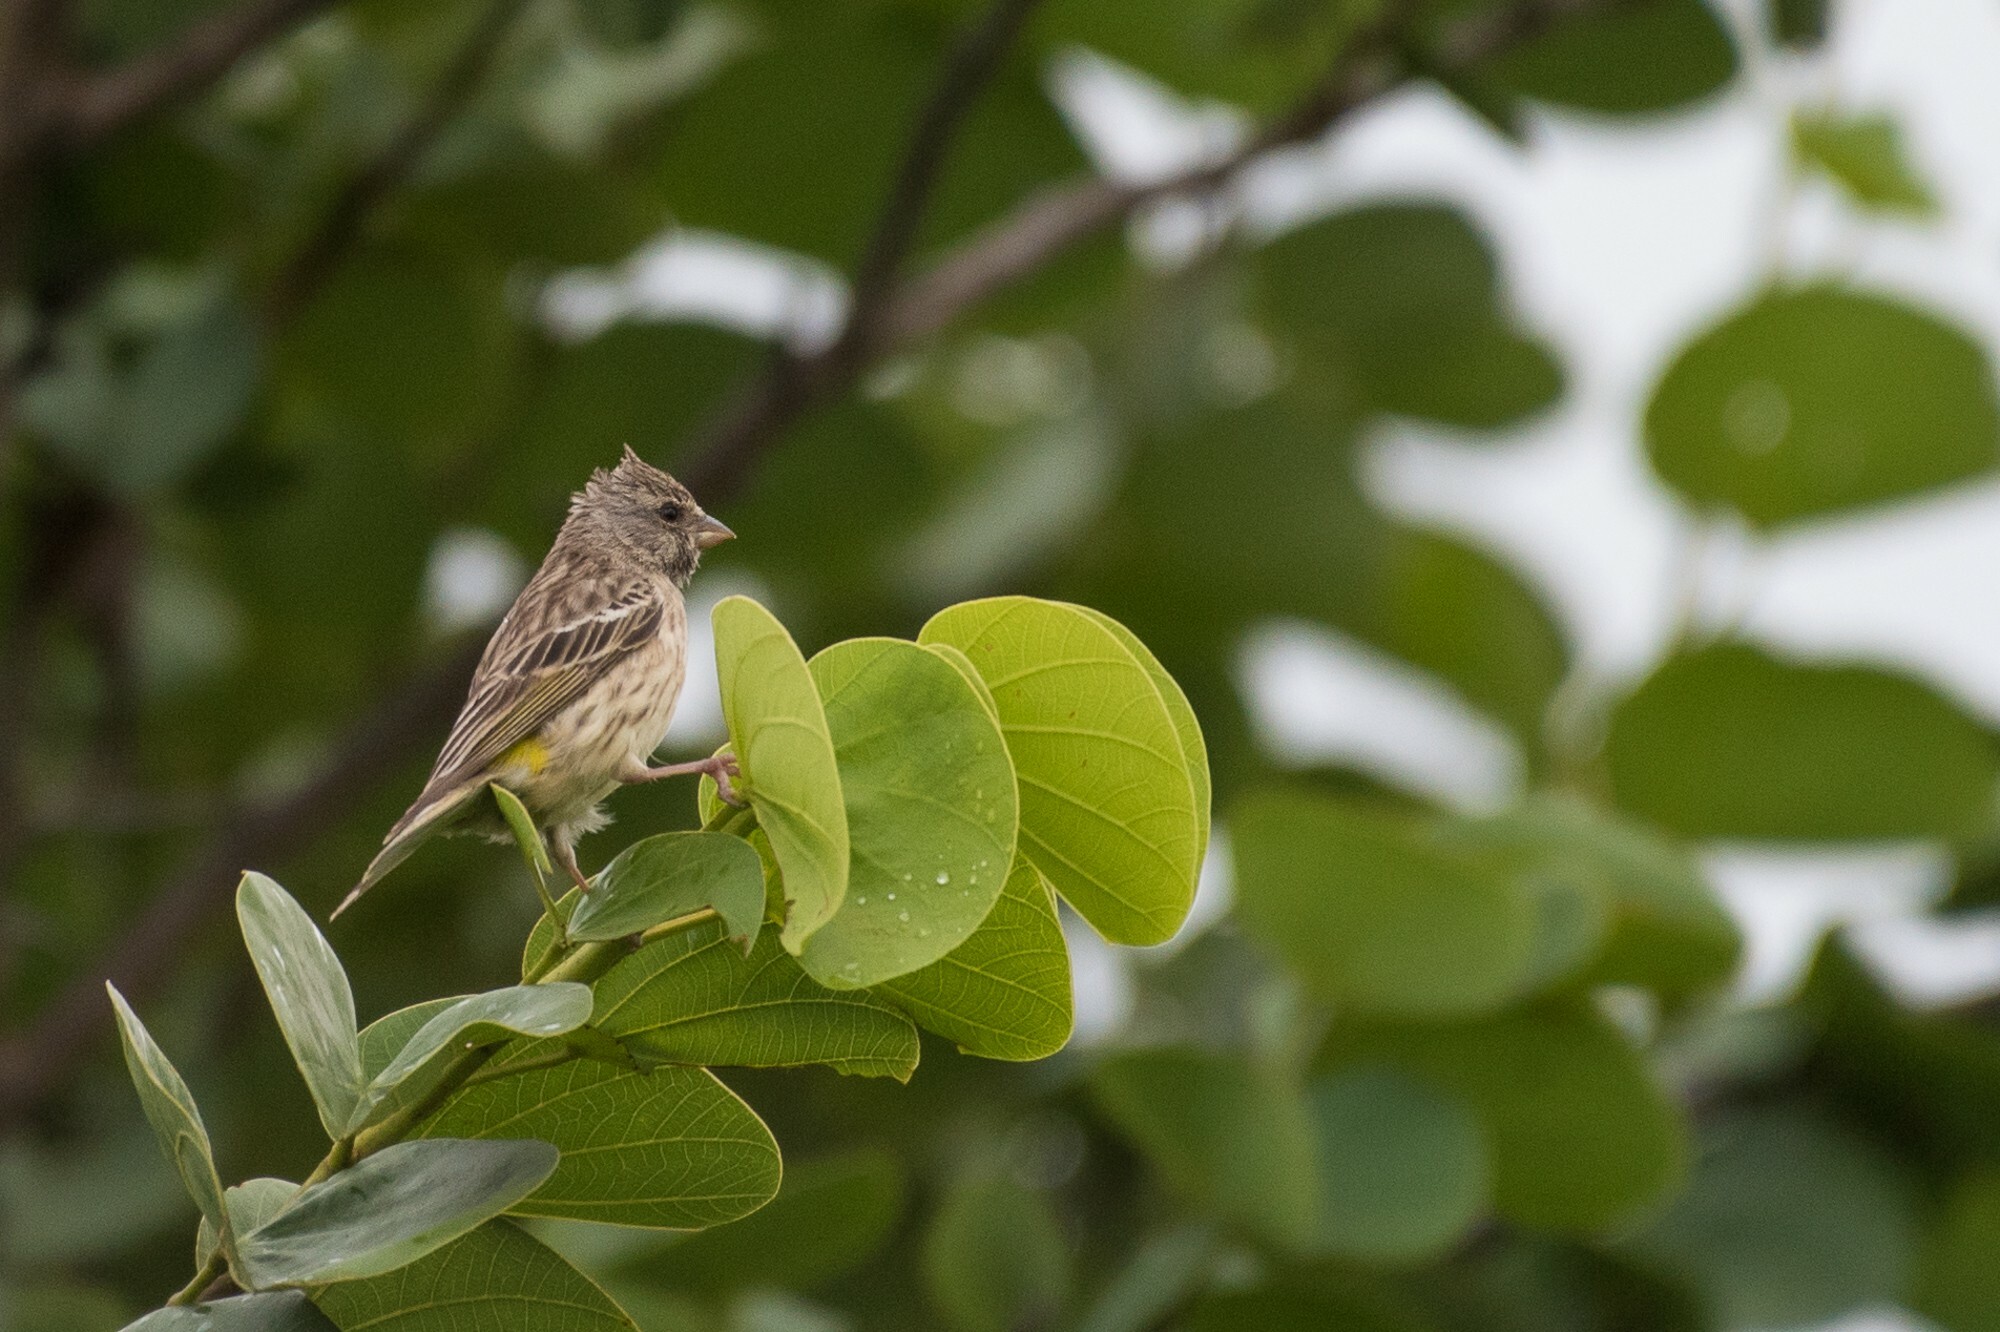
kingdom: Animalia
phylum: Chordata
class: Aves
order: Passeriformes
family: Fringillidae
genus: Crithagra
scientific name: Crithagra atrogularis
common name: Black-throated canary
